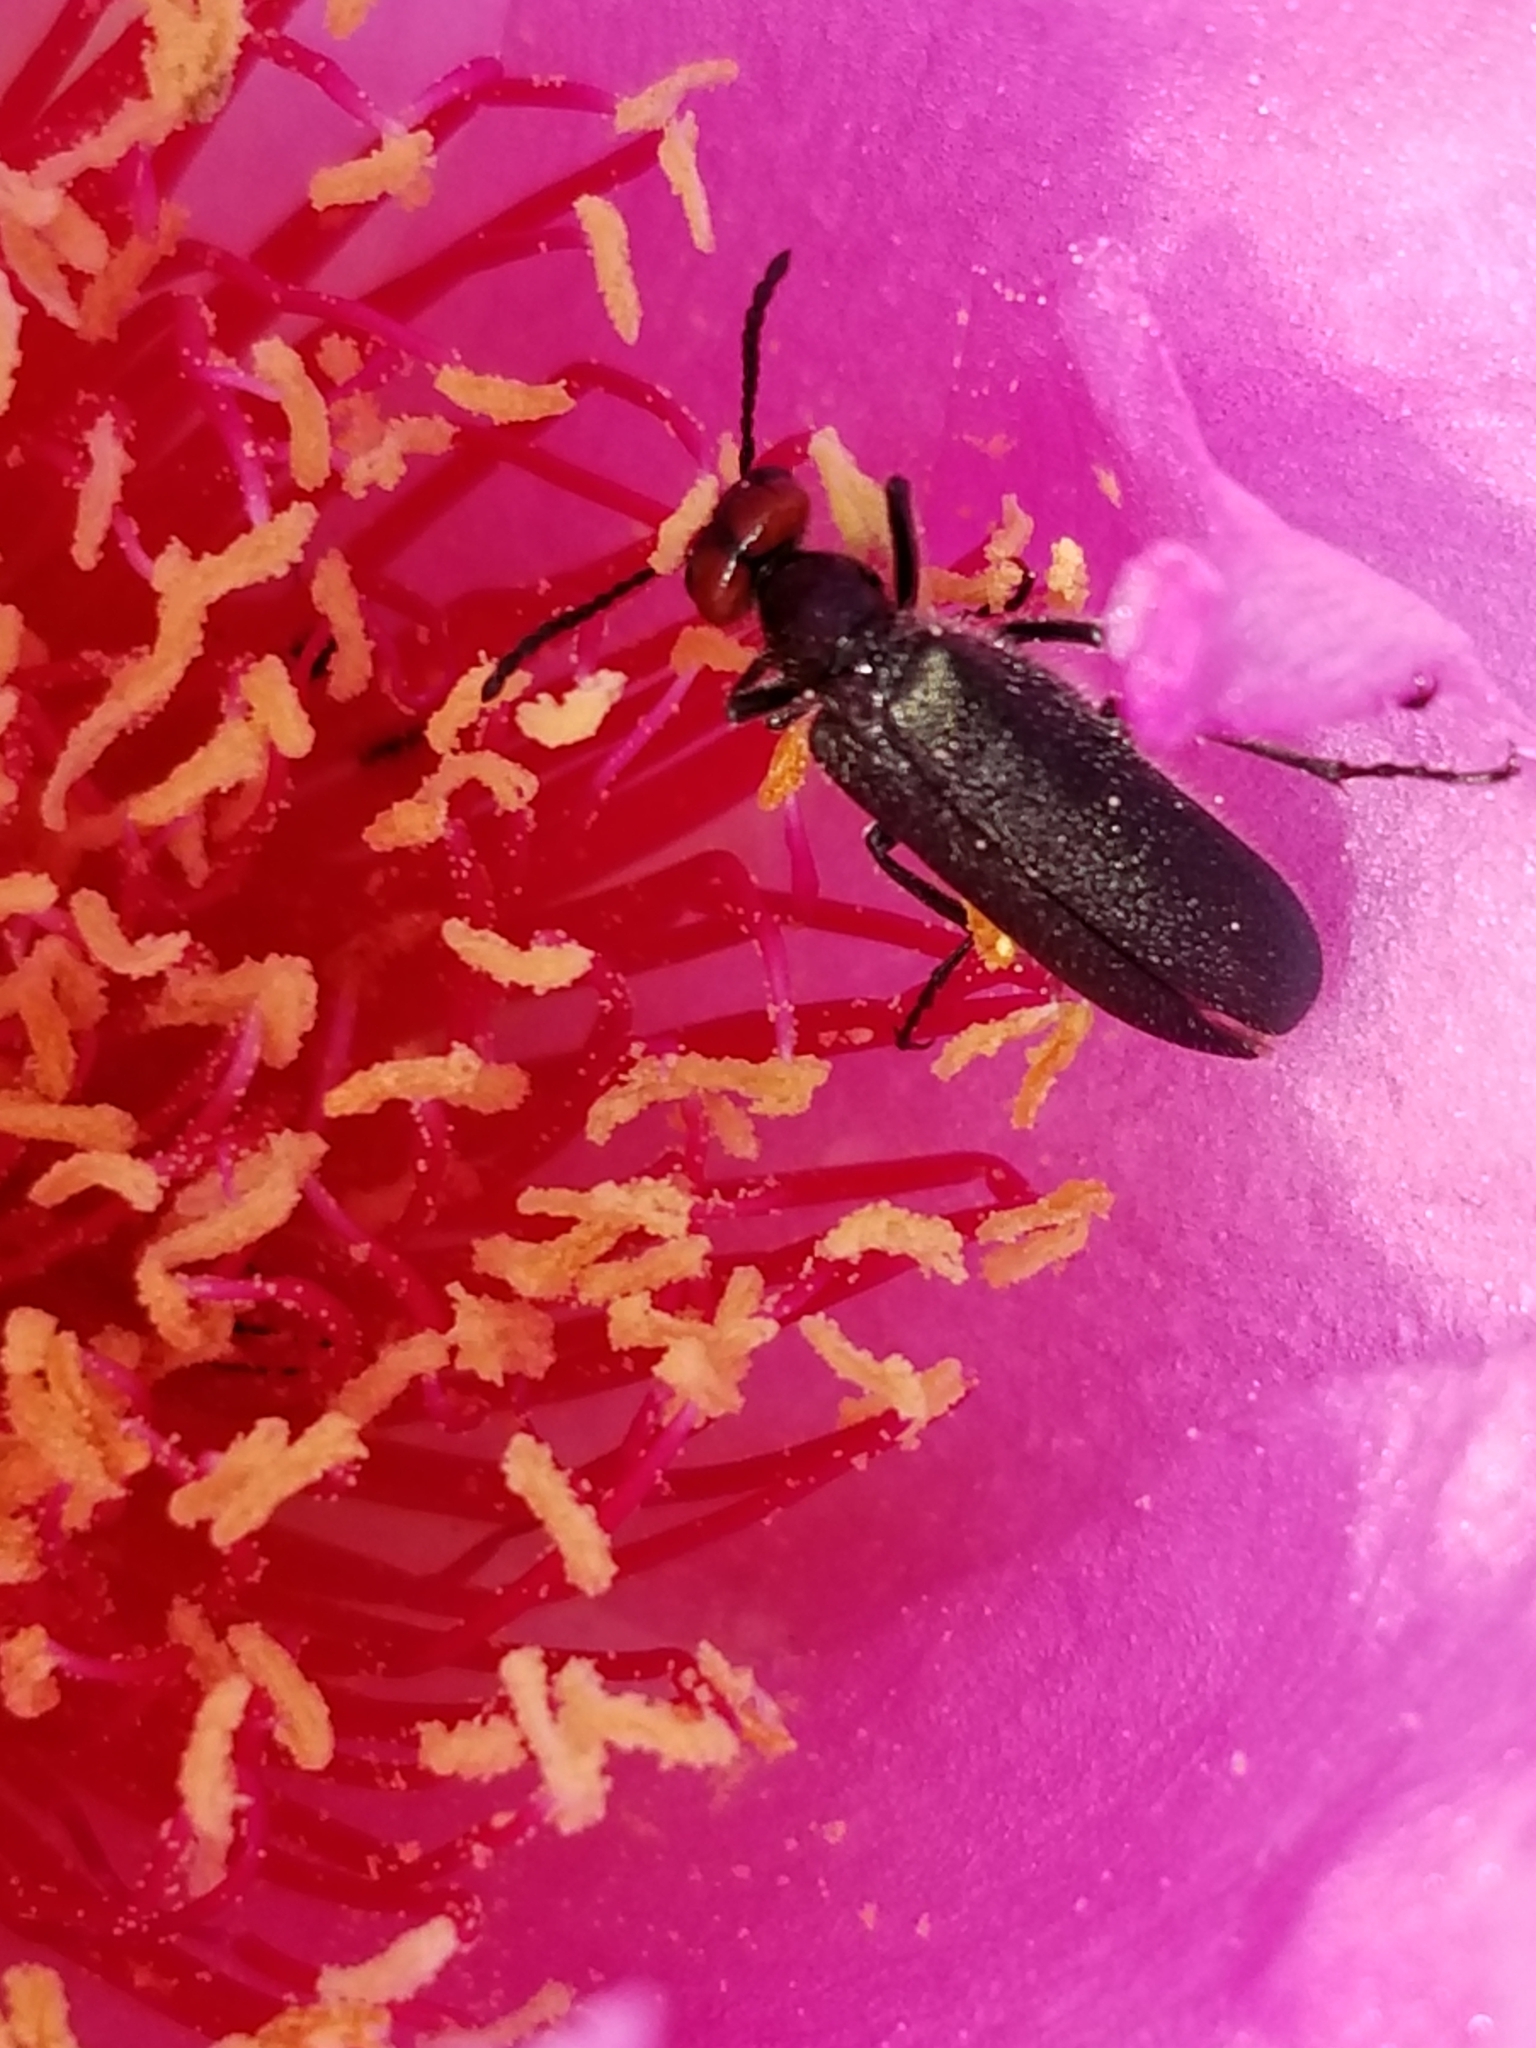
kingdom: Animalia
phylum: Arthropoda
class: Insecta
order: Coleoptera
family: Meloidae
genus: Lytta
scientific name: Lytta auriculata
